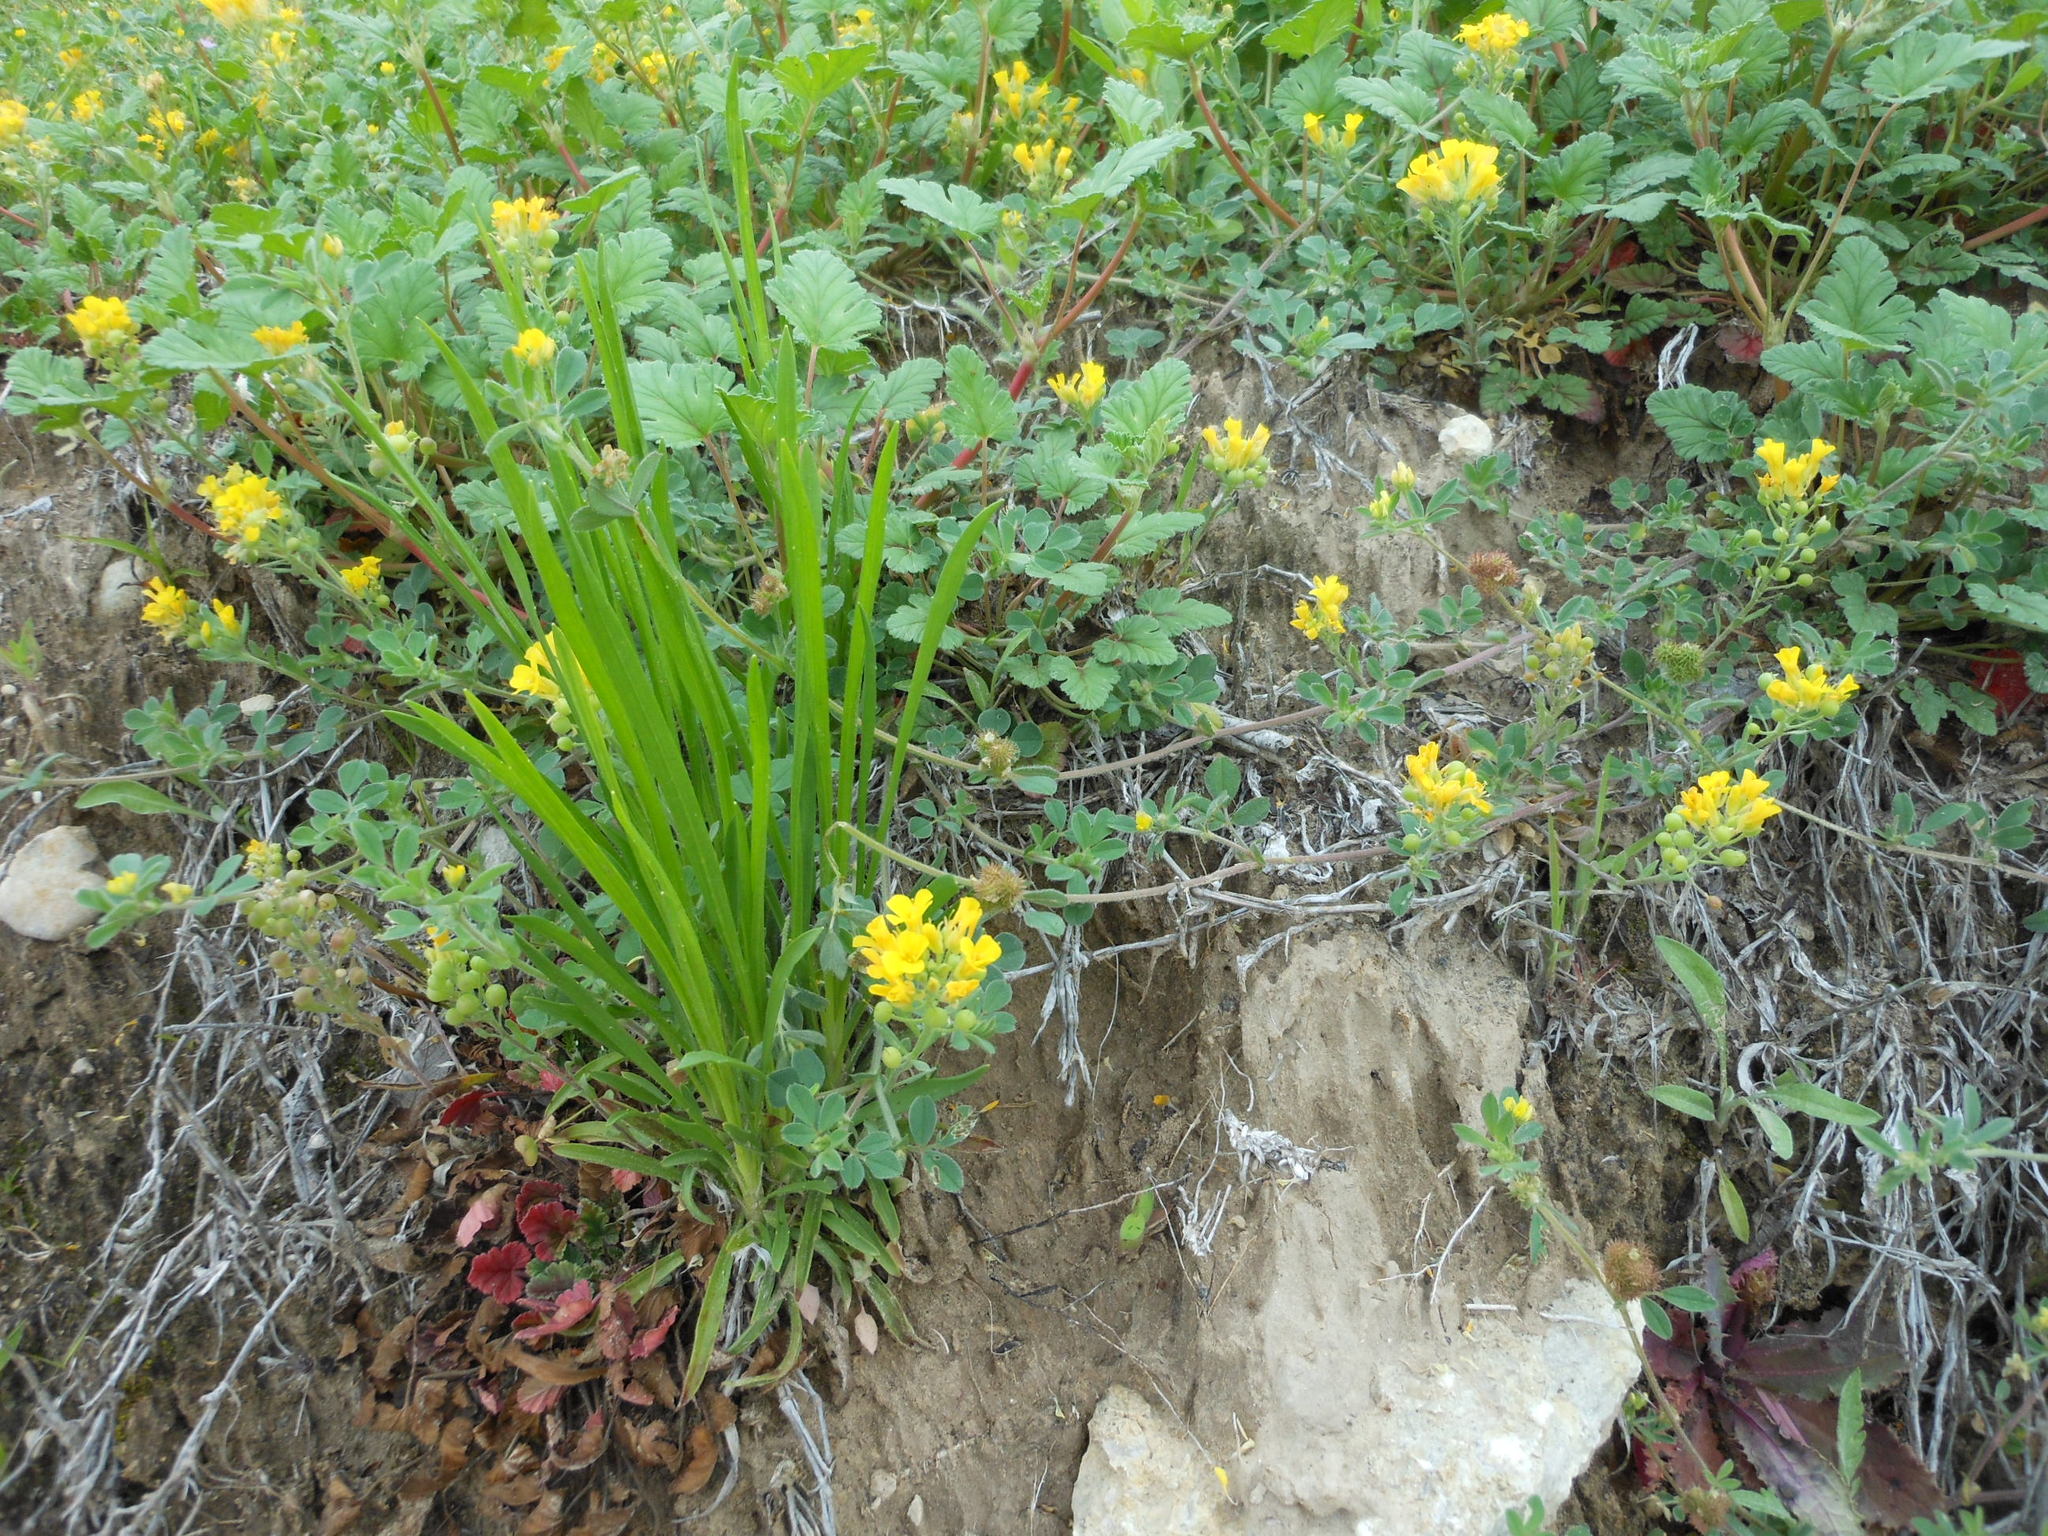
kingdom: Plantae
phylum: Tracheophyta
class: Magnoliopsida
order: Brassicales
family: Brassicaceae
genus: Physaria
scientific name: Physaria gracilis
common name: Spreading bladderpod
